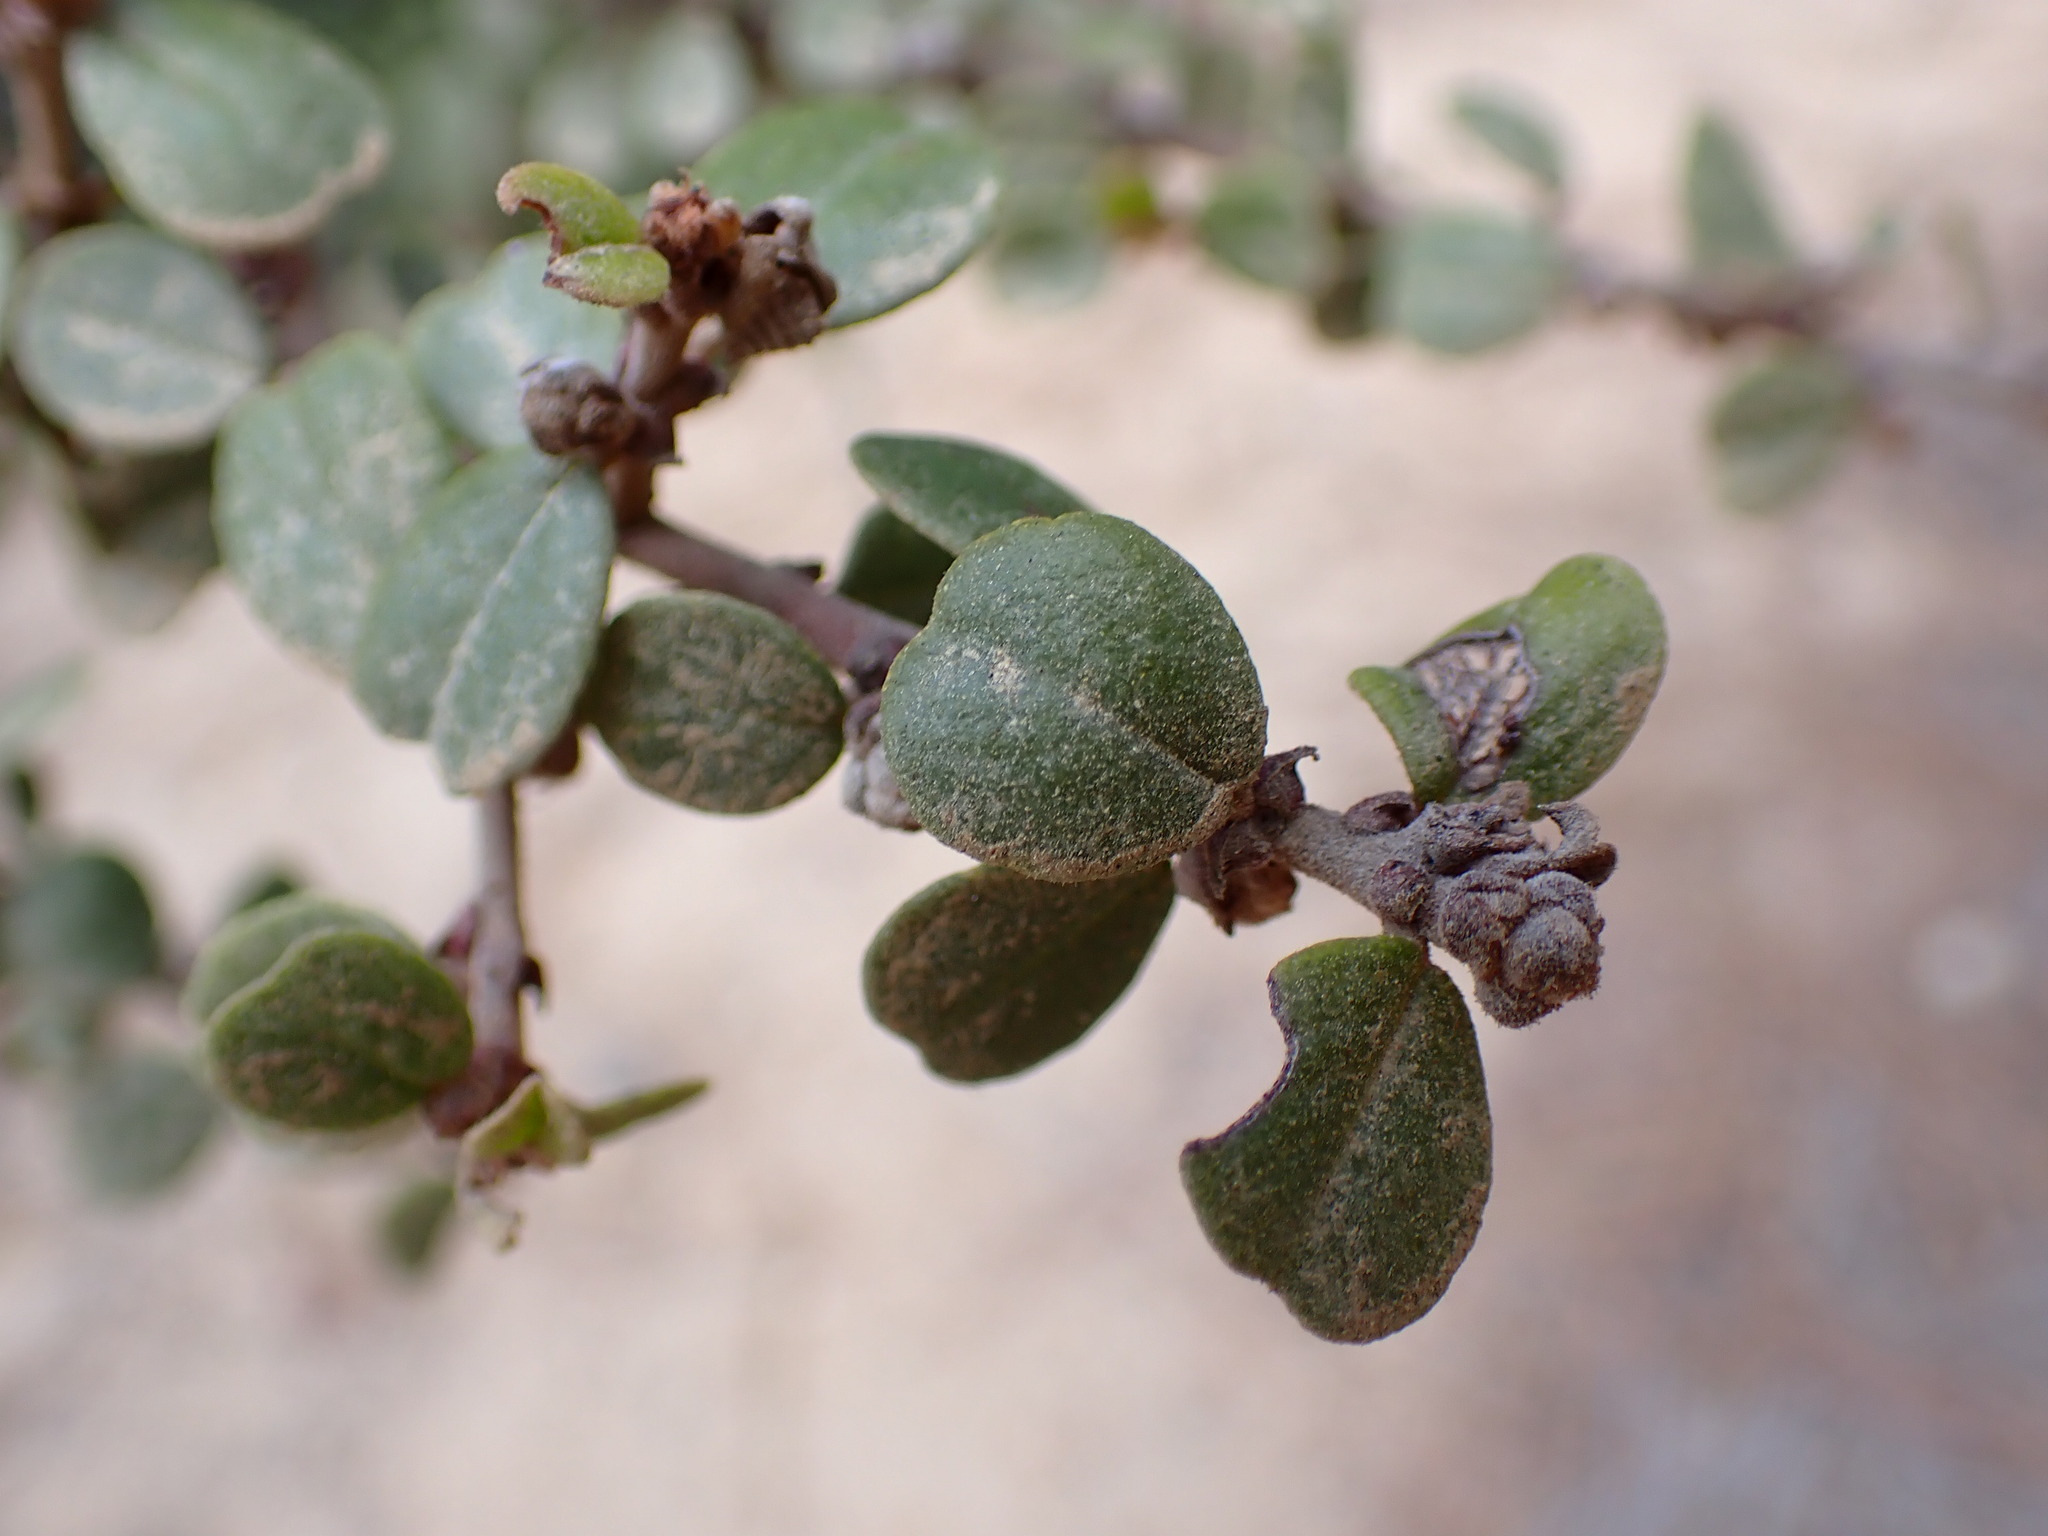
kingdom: Plantae
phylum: Tracheophyta
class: Magnoliopsida
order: Rosales
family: Rhamnaceae
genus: Ceanothus
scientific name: Ceanothus verrucosus
